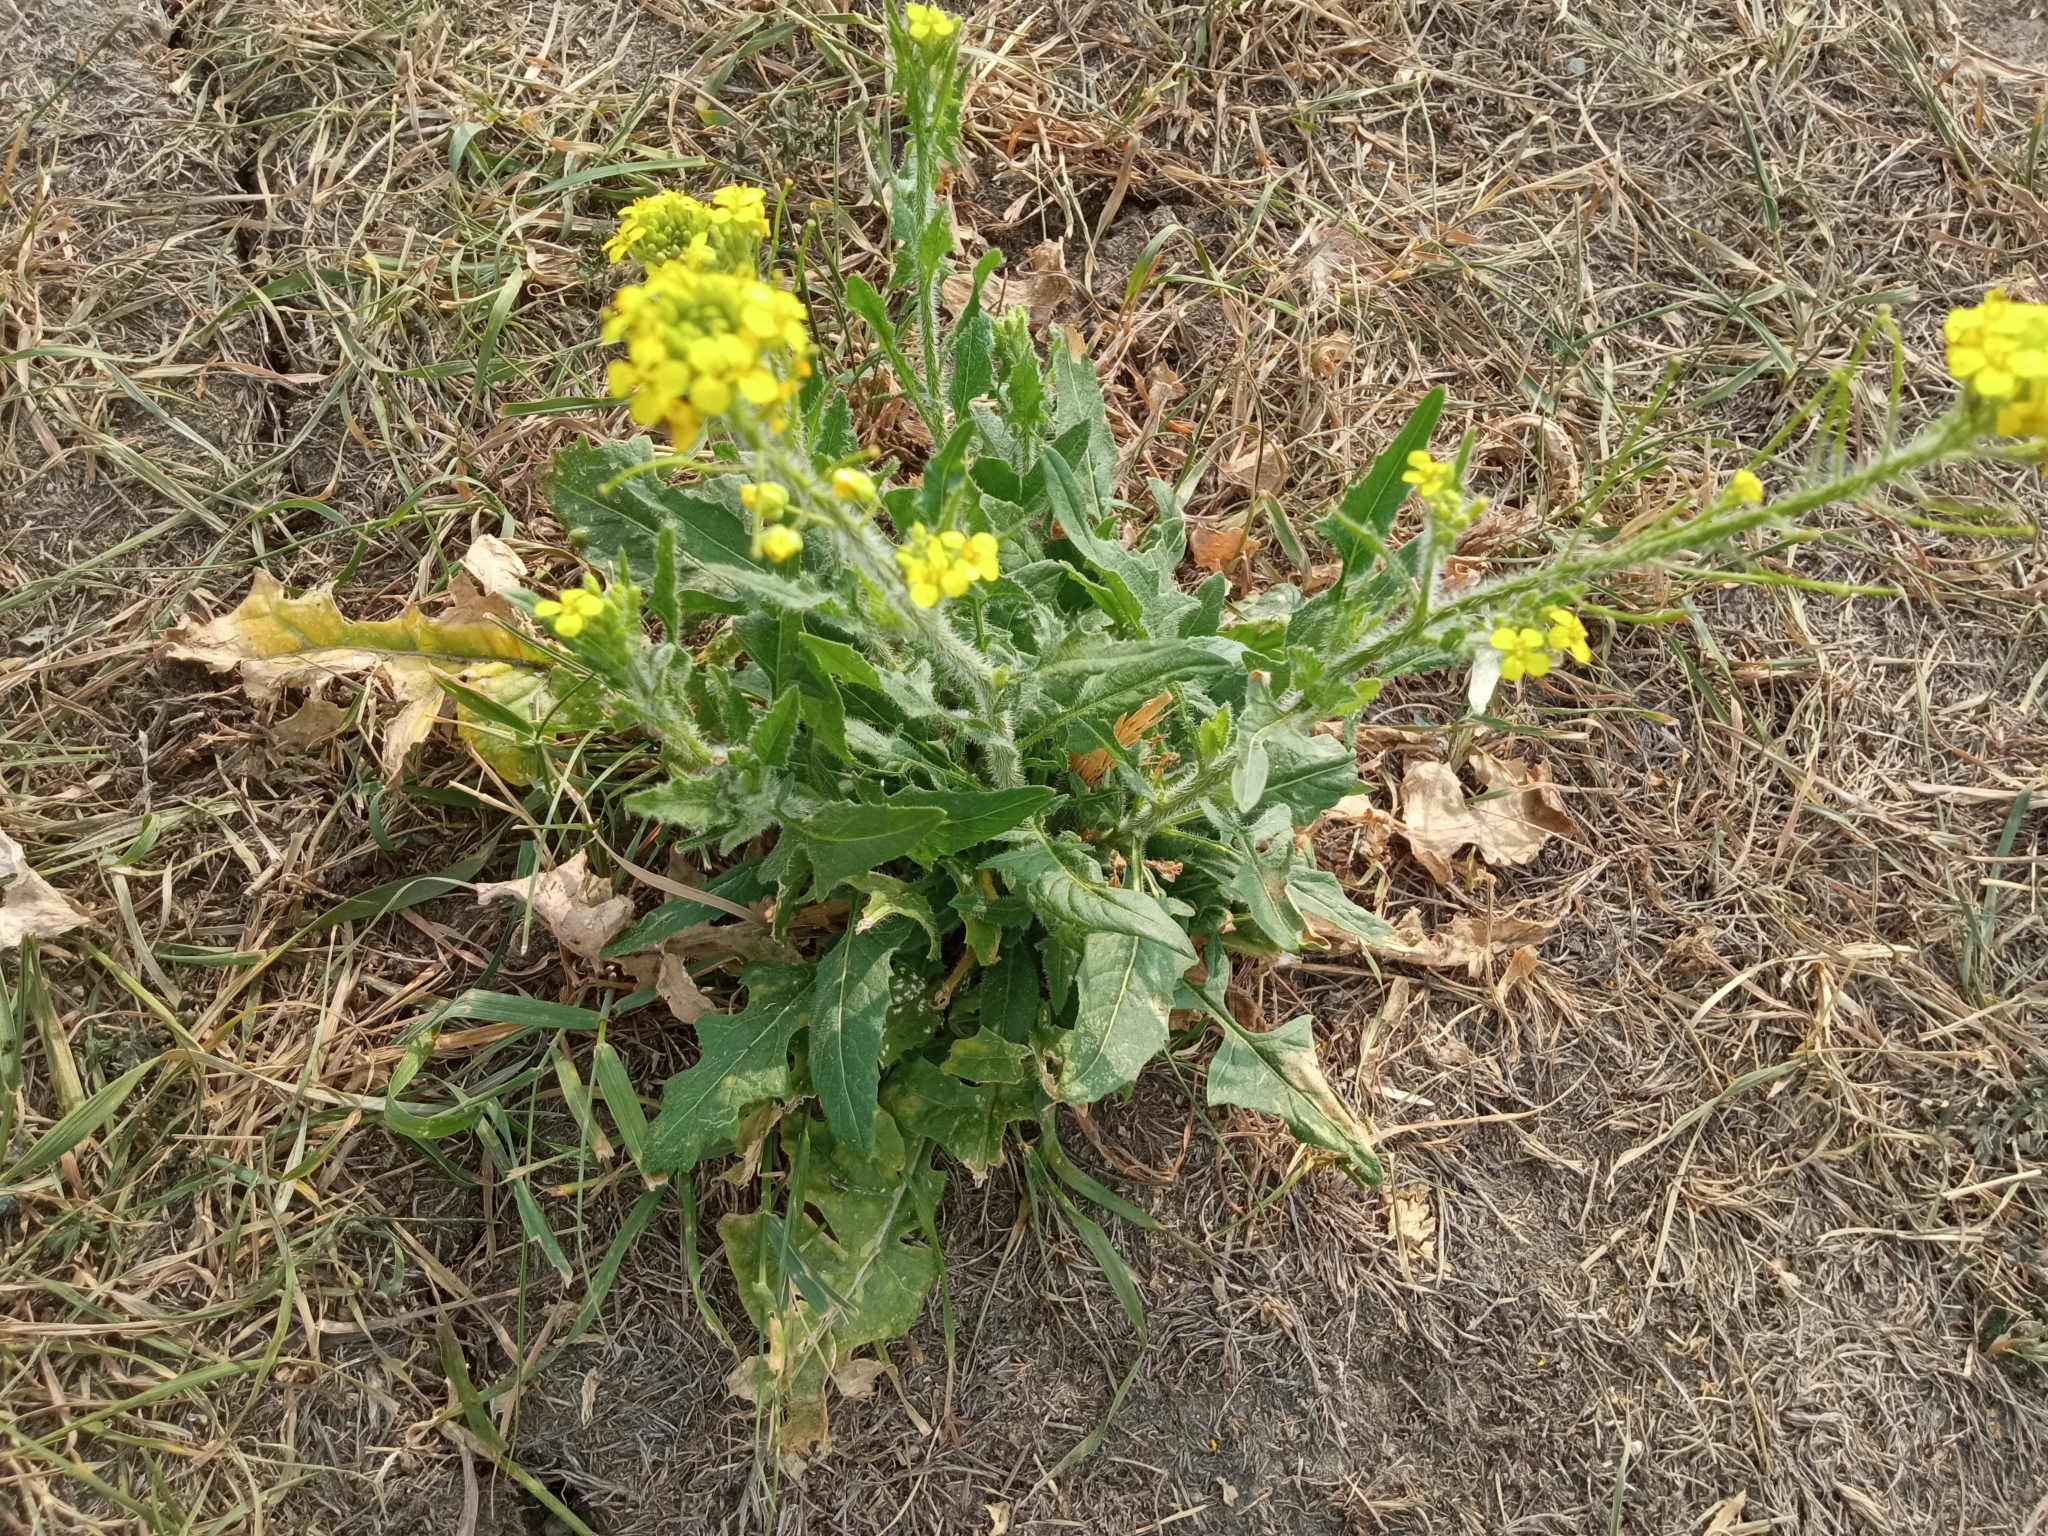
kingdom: Plantae
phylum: Tracheophyta
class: Magnoliopsida
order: Brassicales
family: Brassicaceae
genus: Sisymbrium
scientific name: Sisymbrium loeselii
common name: False london-rocket
